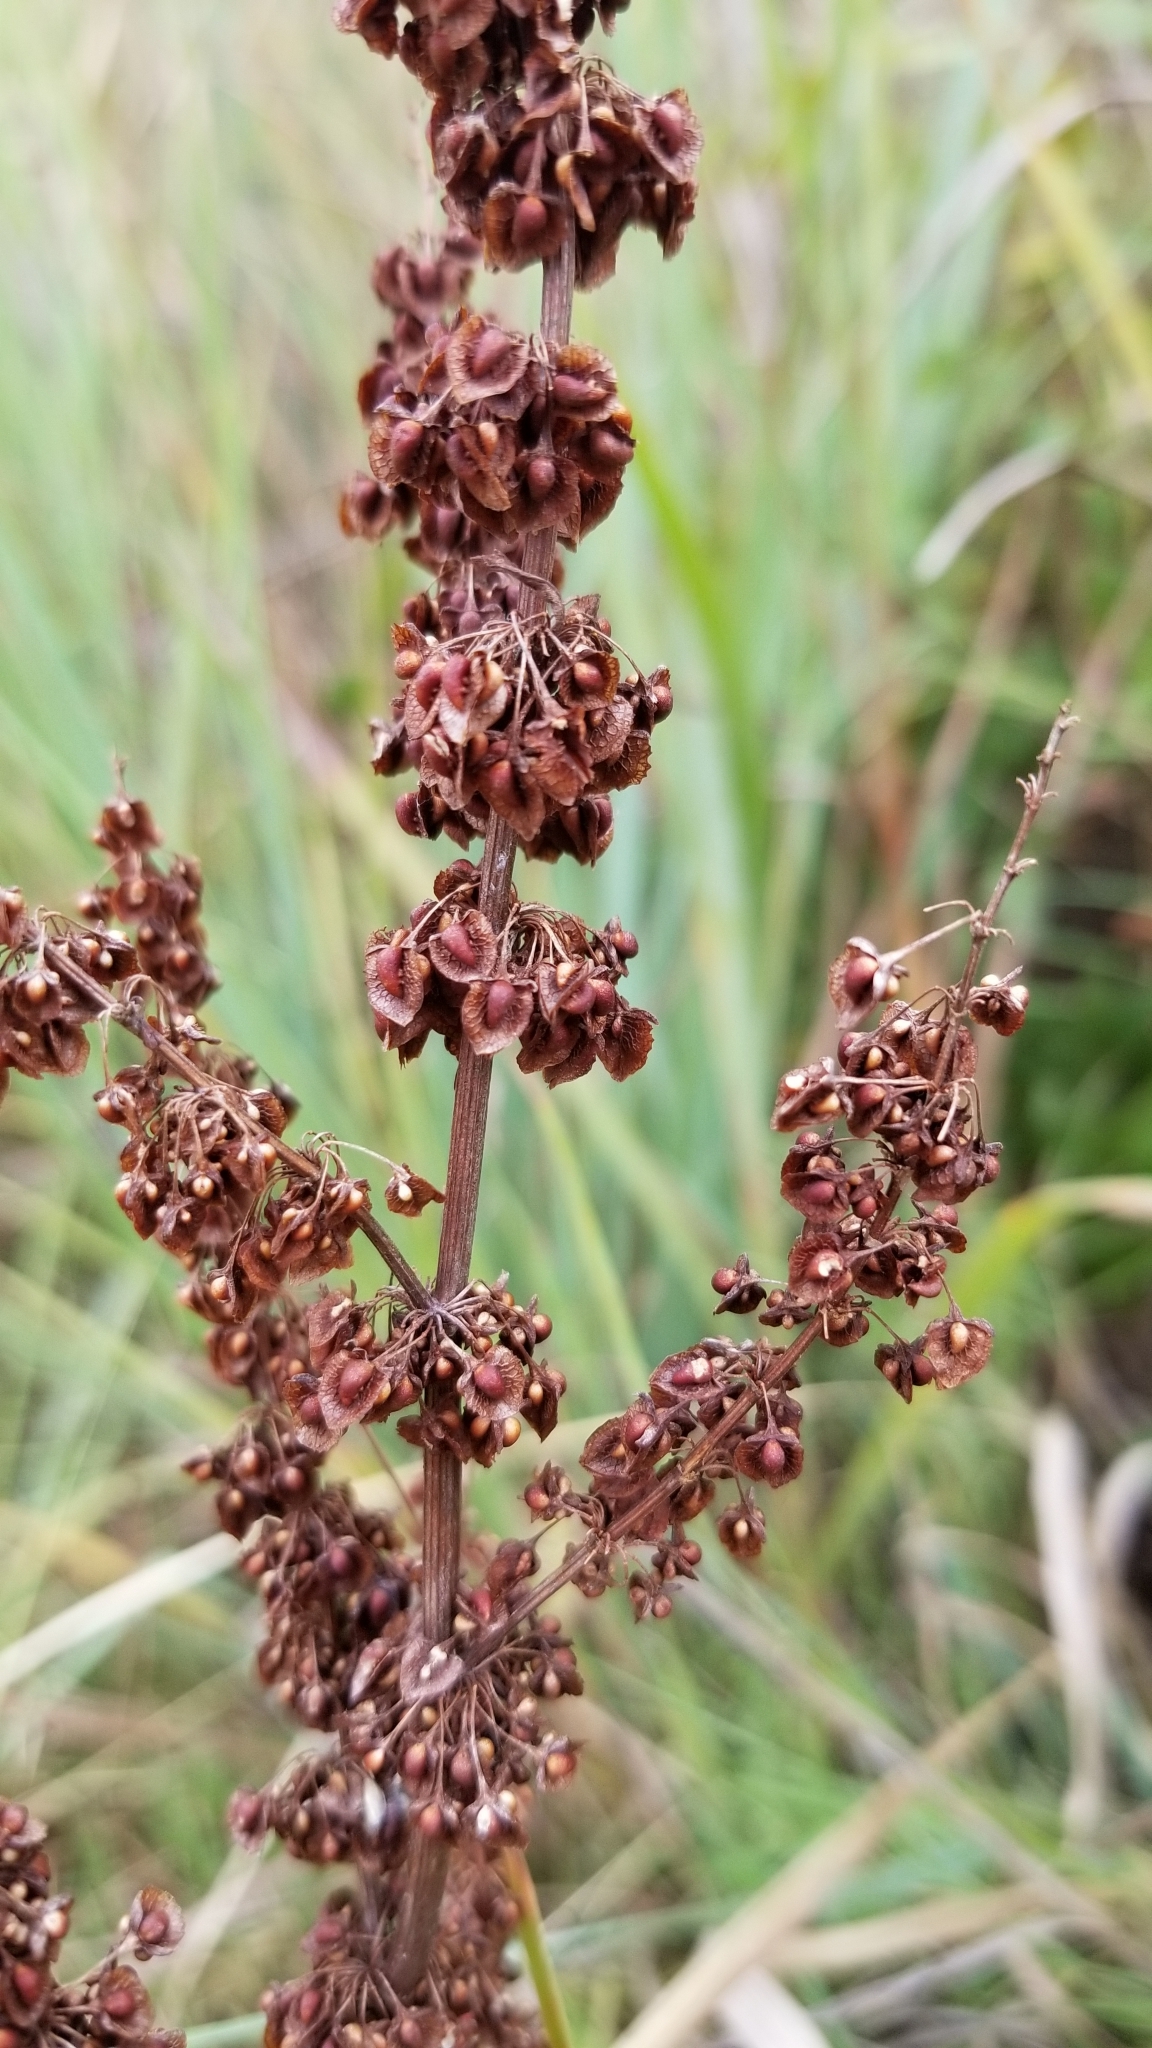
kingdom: Plantae
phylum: Tracheophyta
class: Magnoliopsida
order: Caryophyllales
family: Polygonaceae
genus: Rumex
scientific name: Rumex crispus
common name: Curled dock
